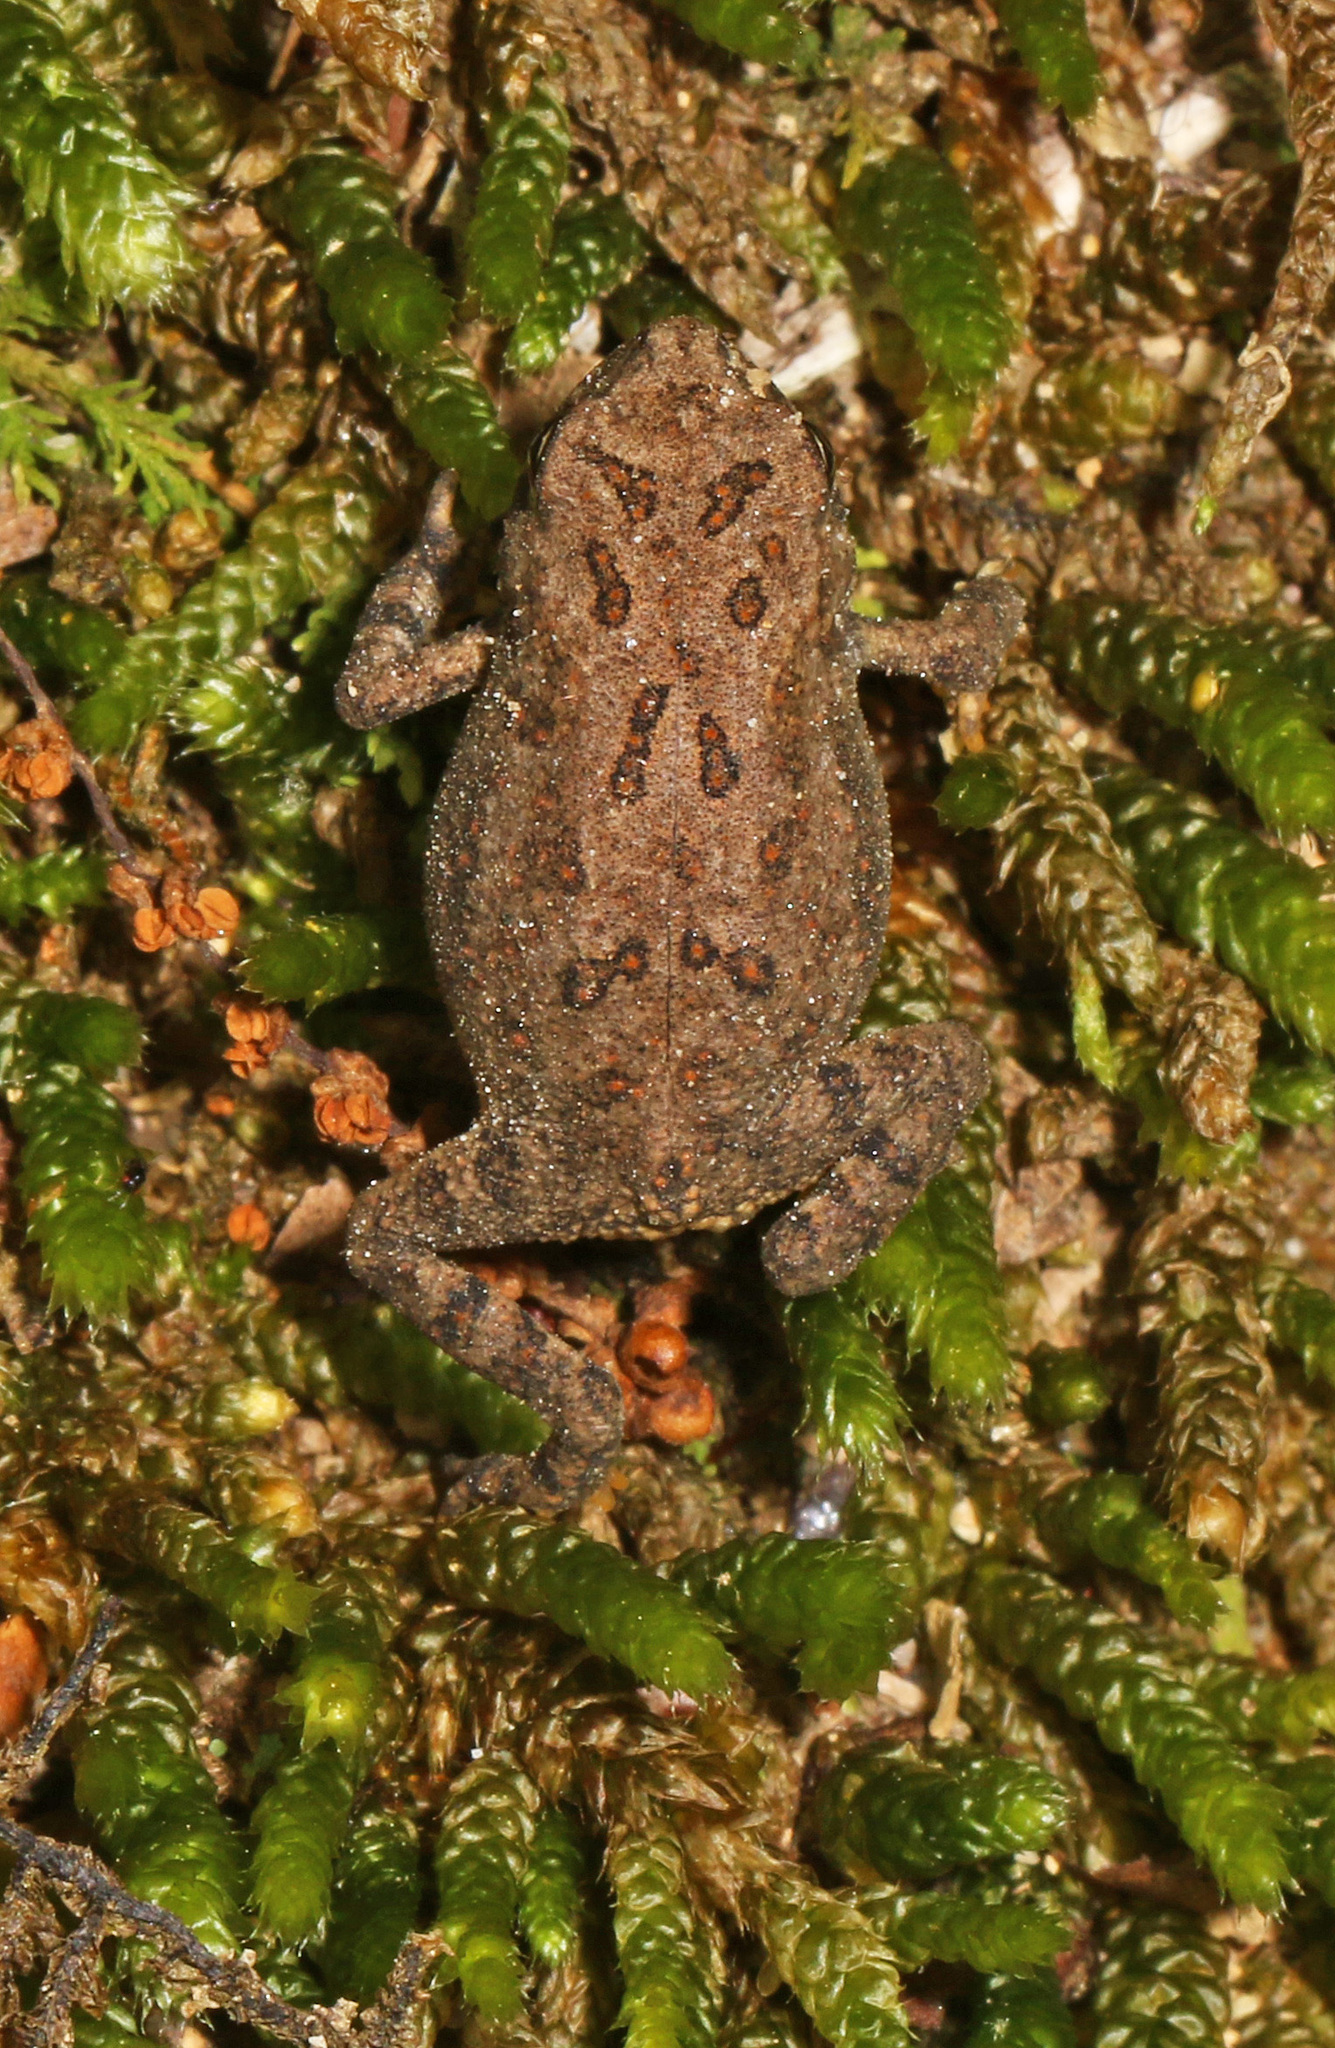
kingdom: Animalia
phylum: Chordata
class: Amphibia
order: Anura
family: Bufonidae
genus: Anaxyrus
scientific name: Anaxyrus fowleri
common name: Fowler's toad
